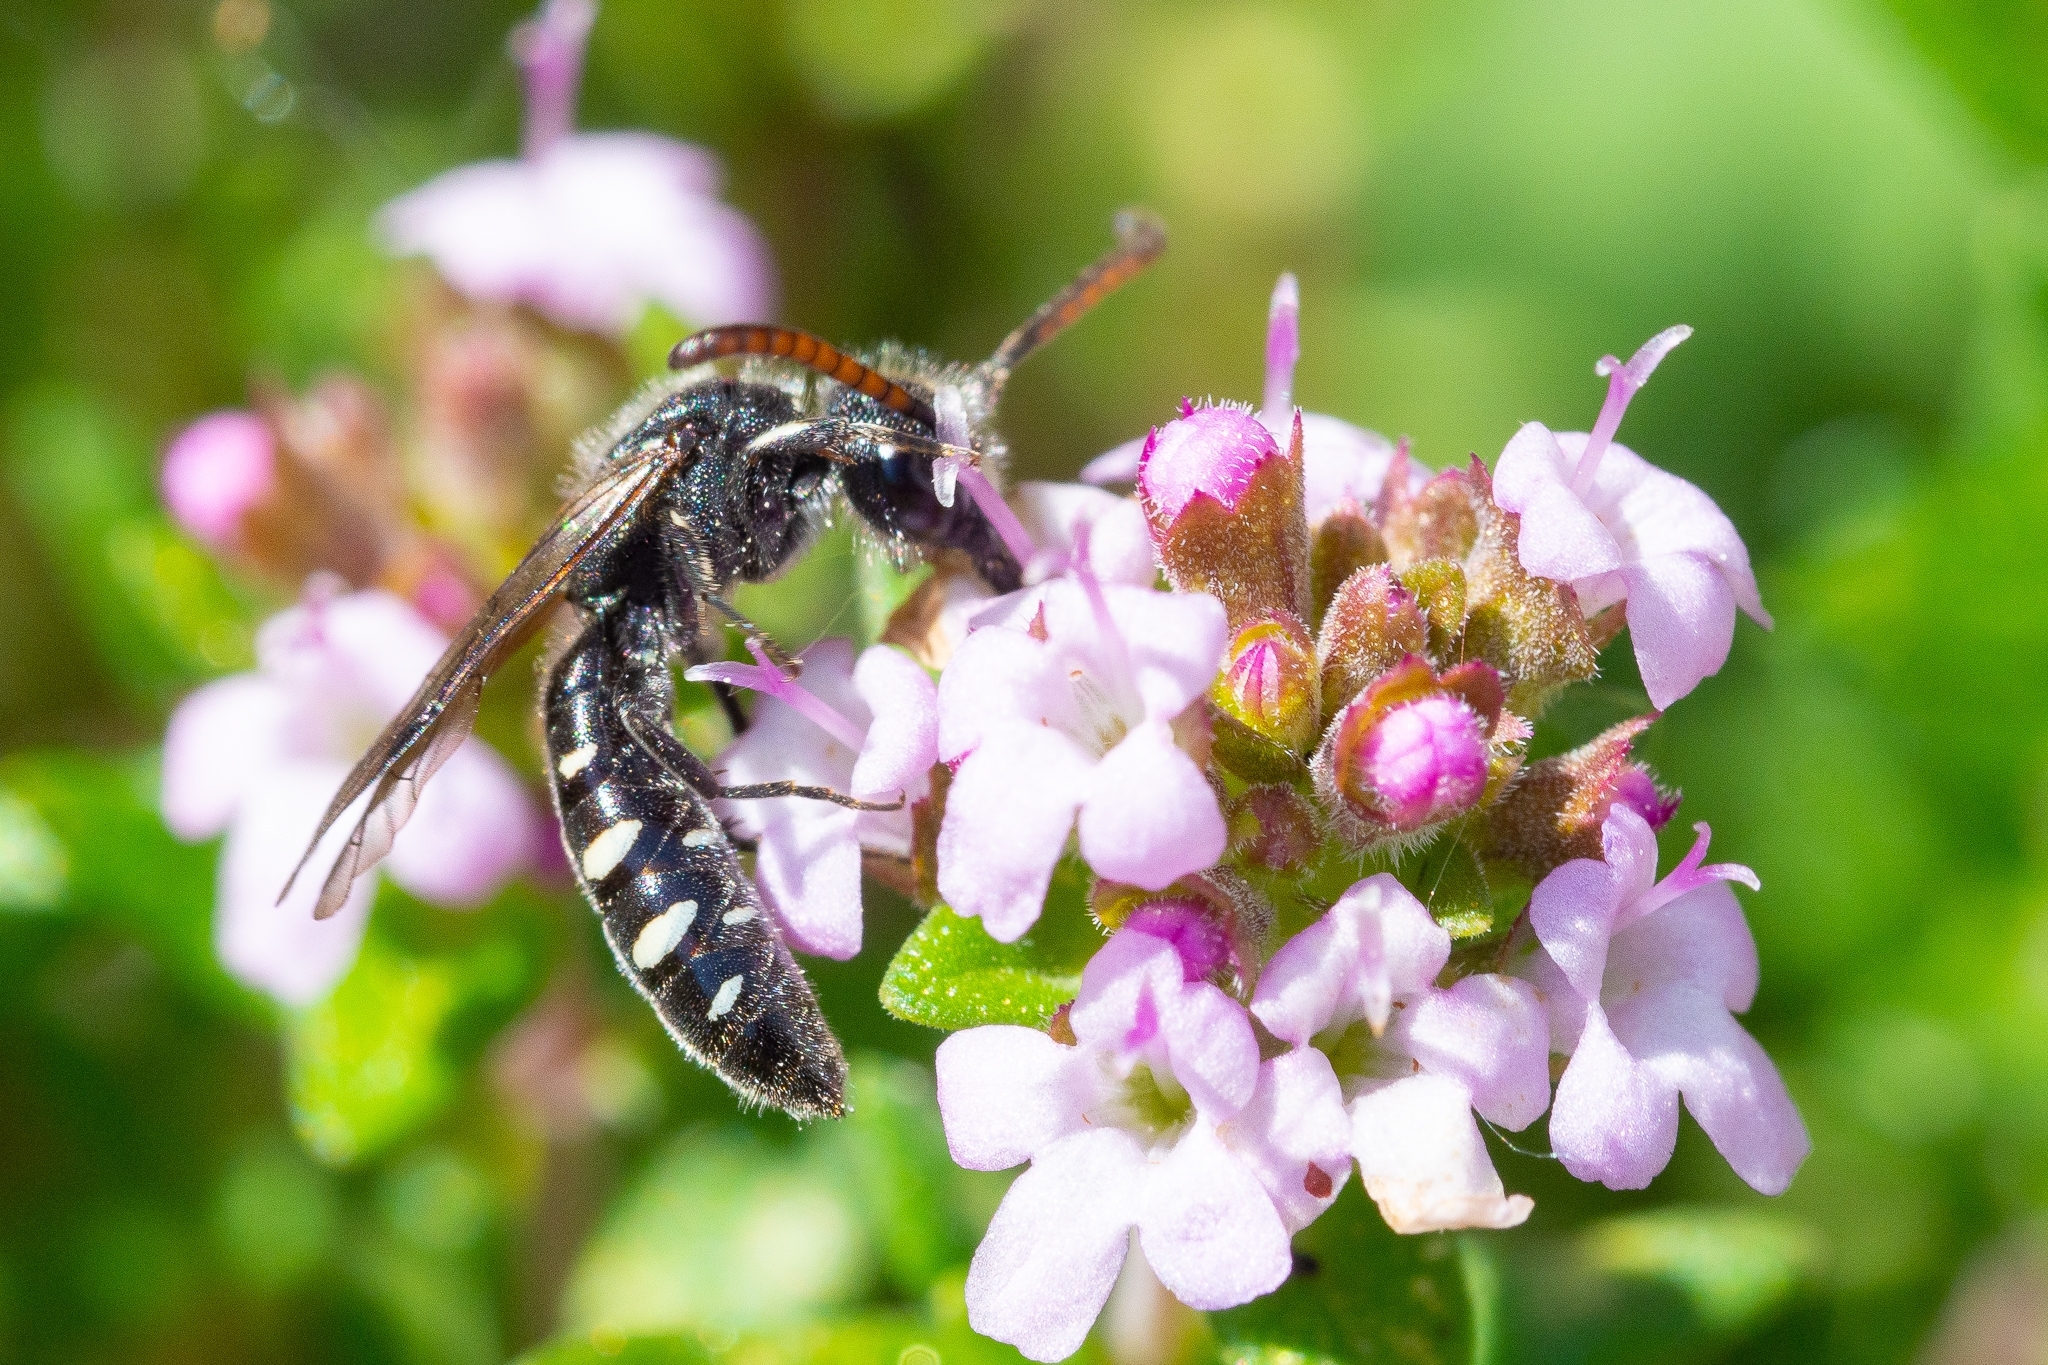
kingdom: Animalia
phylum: Arthropoda
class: Insecta
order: Hymenoptera
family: Sapygidae
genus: Sapyga
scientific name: Sapyga quinquepunctata
